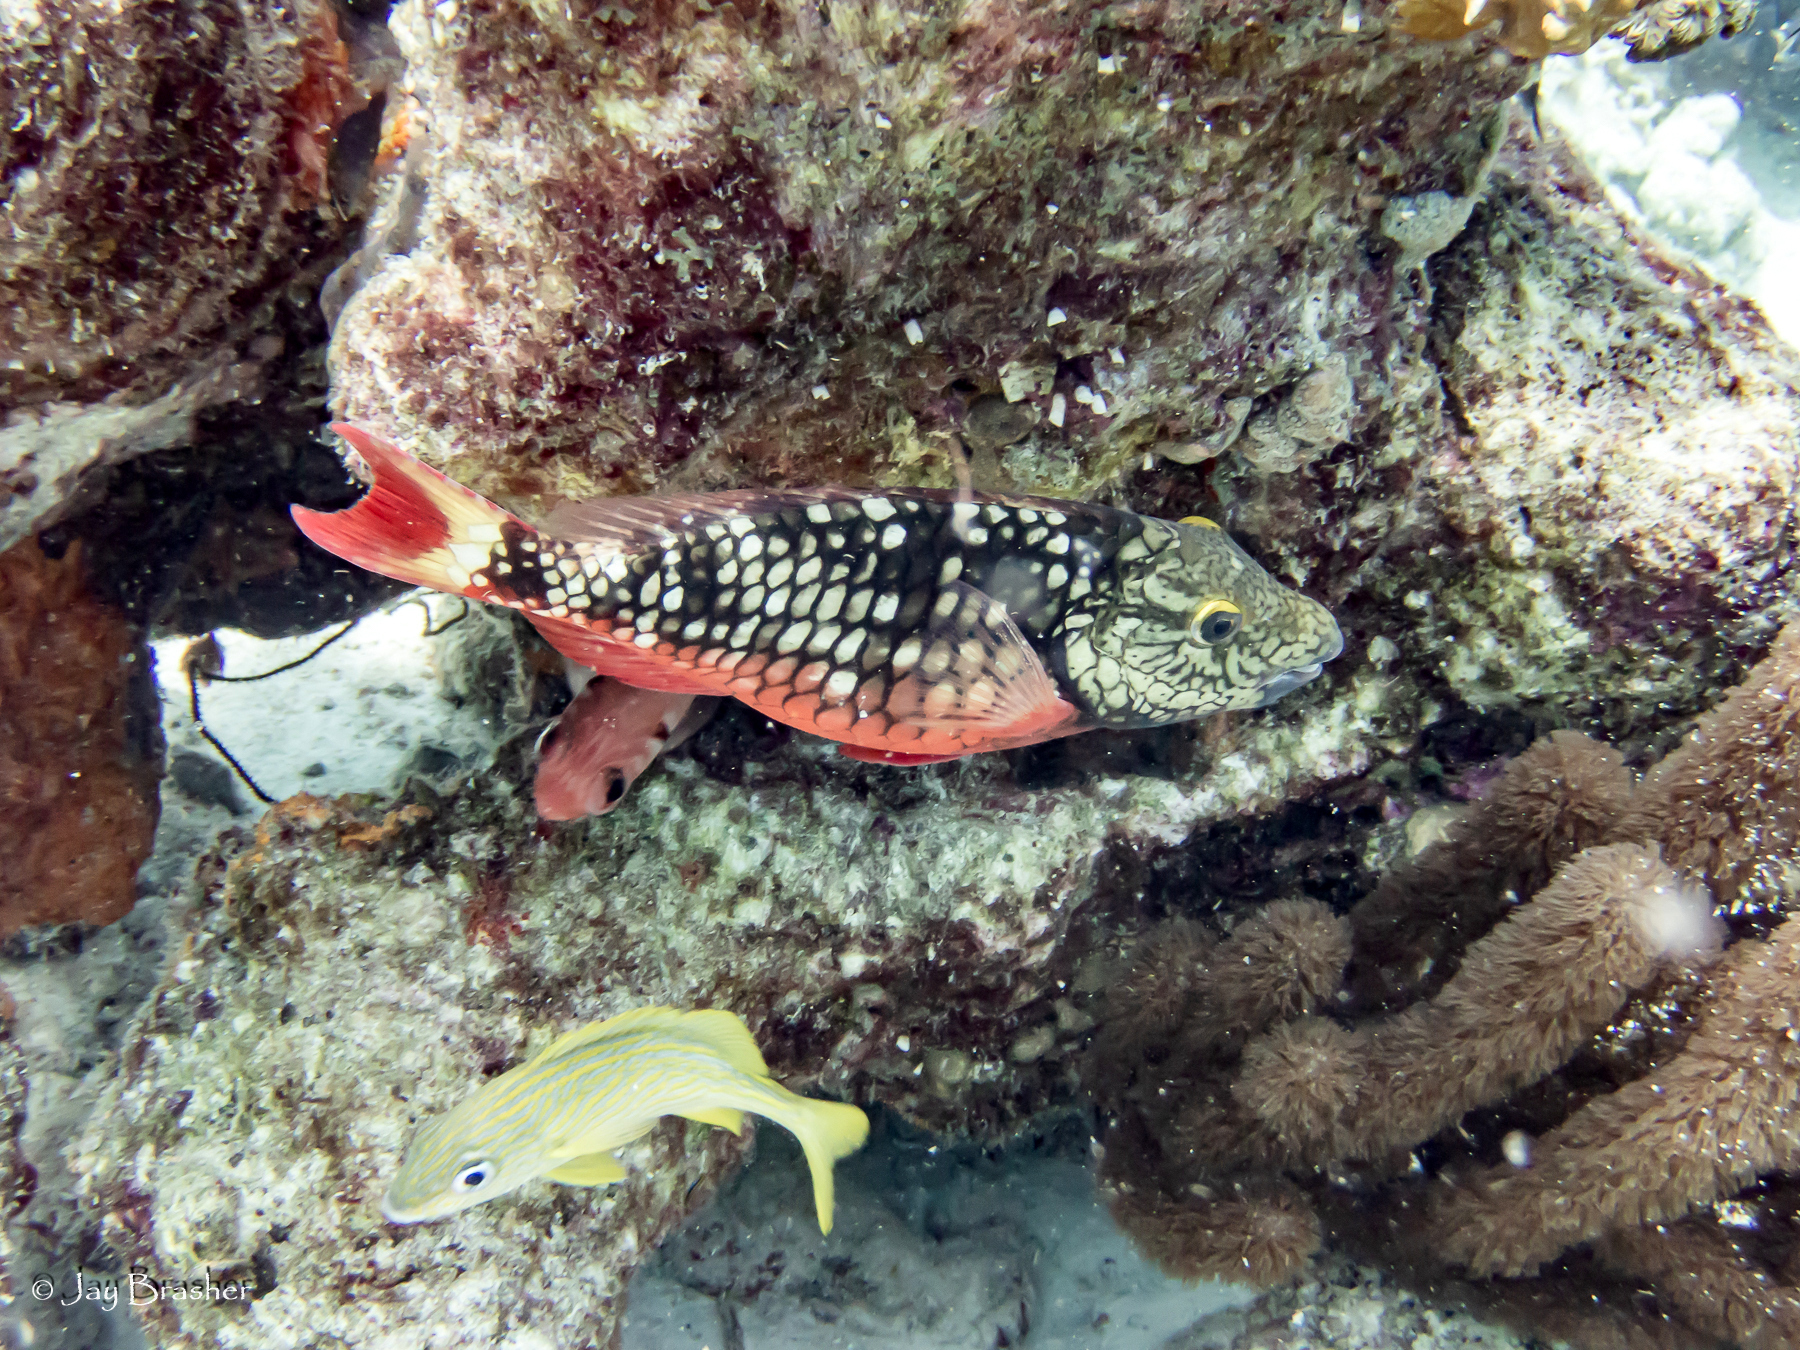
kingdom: Animalia
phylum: Chordata
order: Perciformes
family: Scaridae
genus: Sparisoma
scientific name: Sparisoma viride
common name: Stoplight parrotfish
